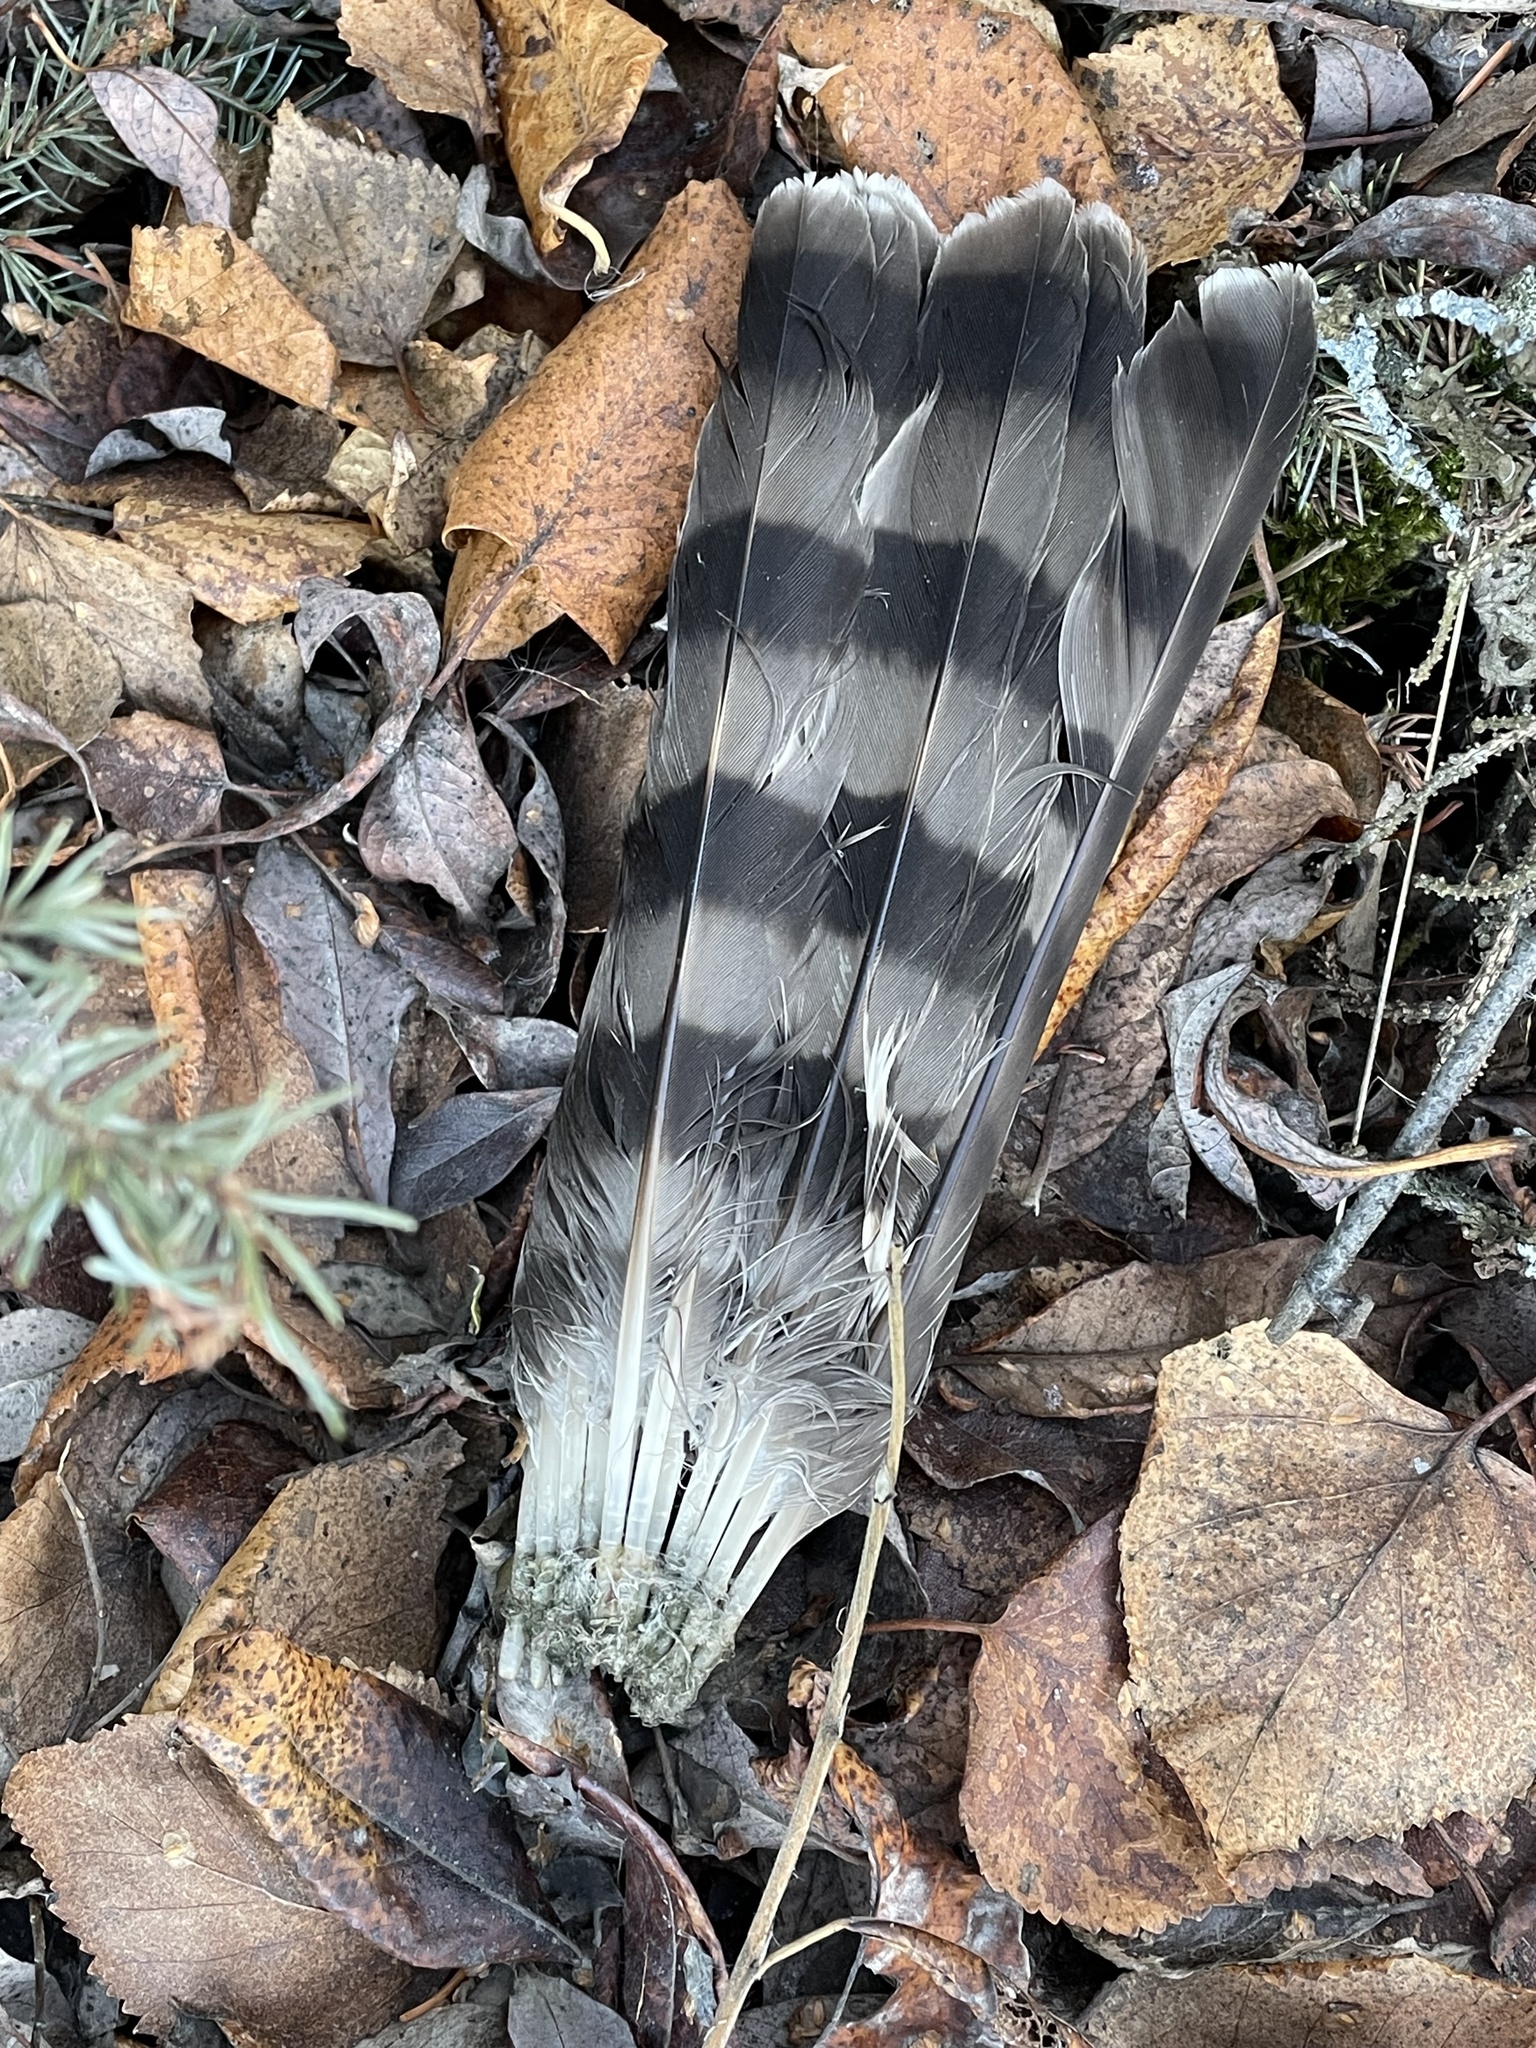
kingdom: Animalia
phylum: Chordata
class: Aves
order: Accipitriformes
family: Accipitridae
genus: Accipiter
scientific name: Accipiter striatus
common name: Sharp-shinned hawk
